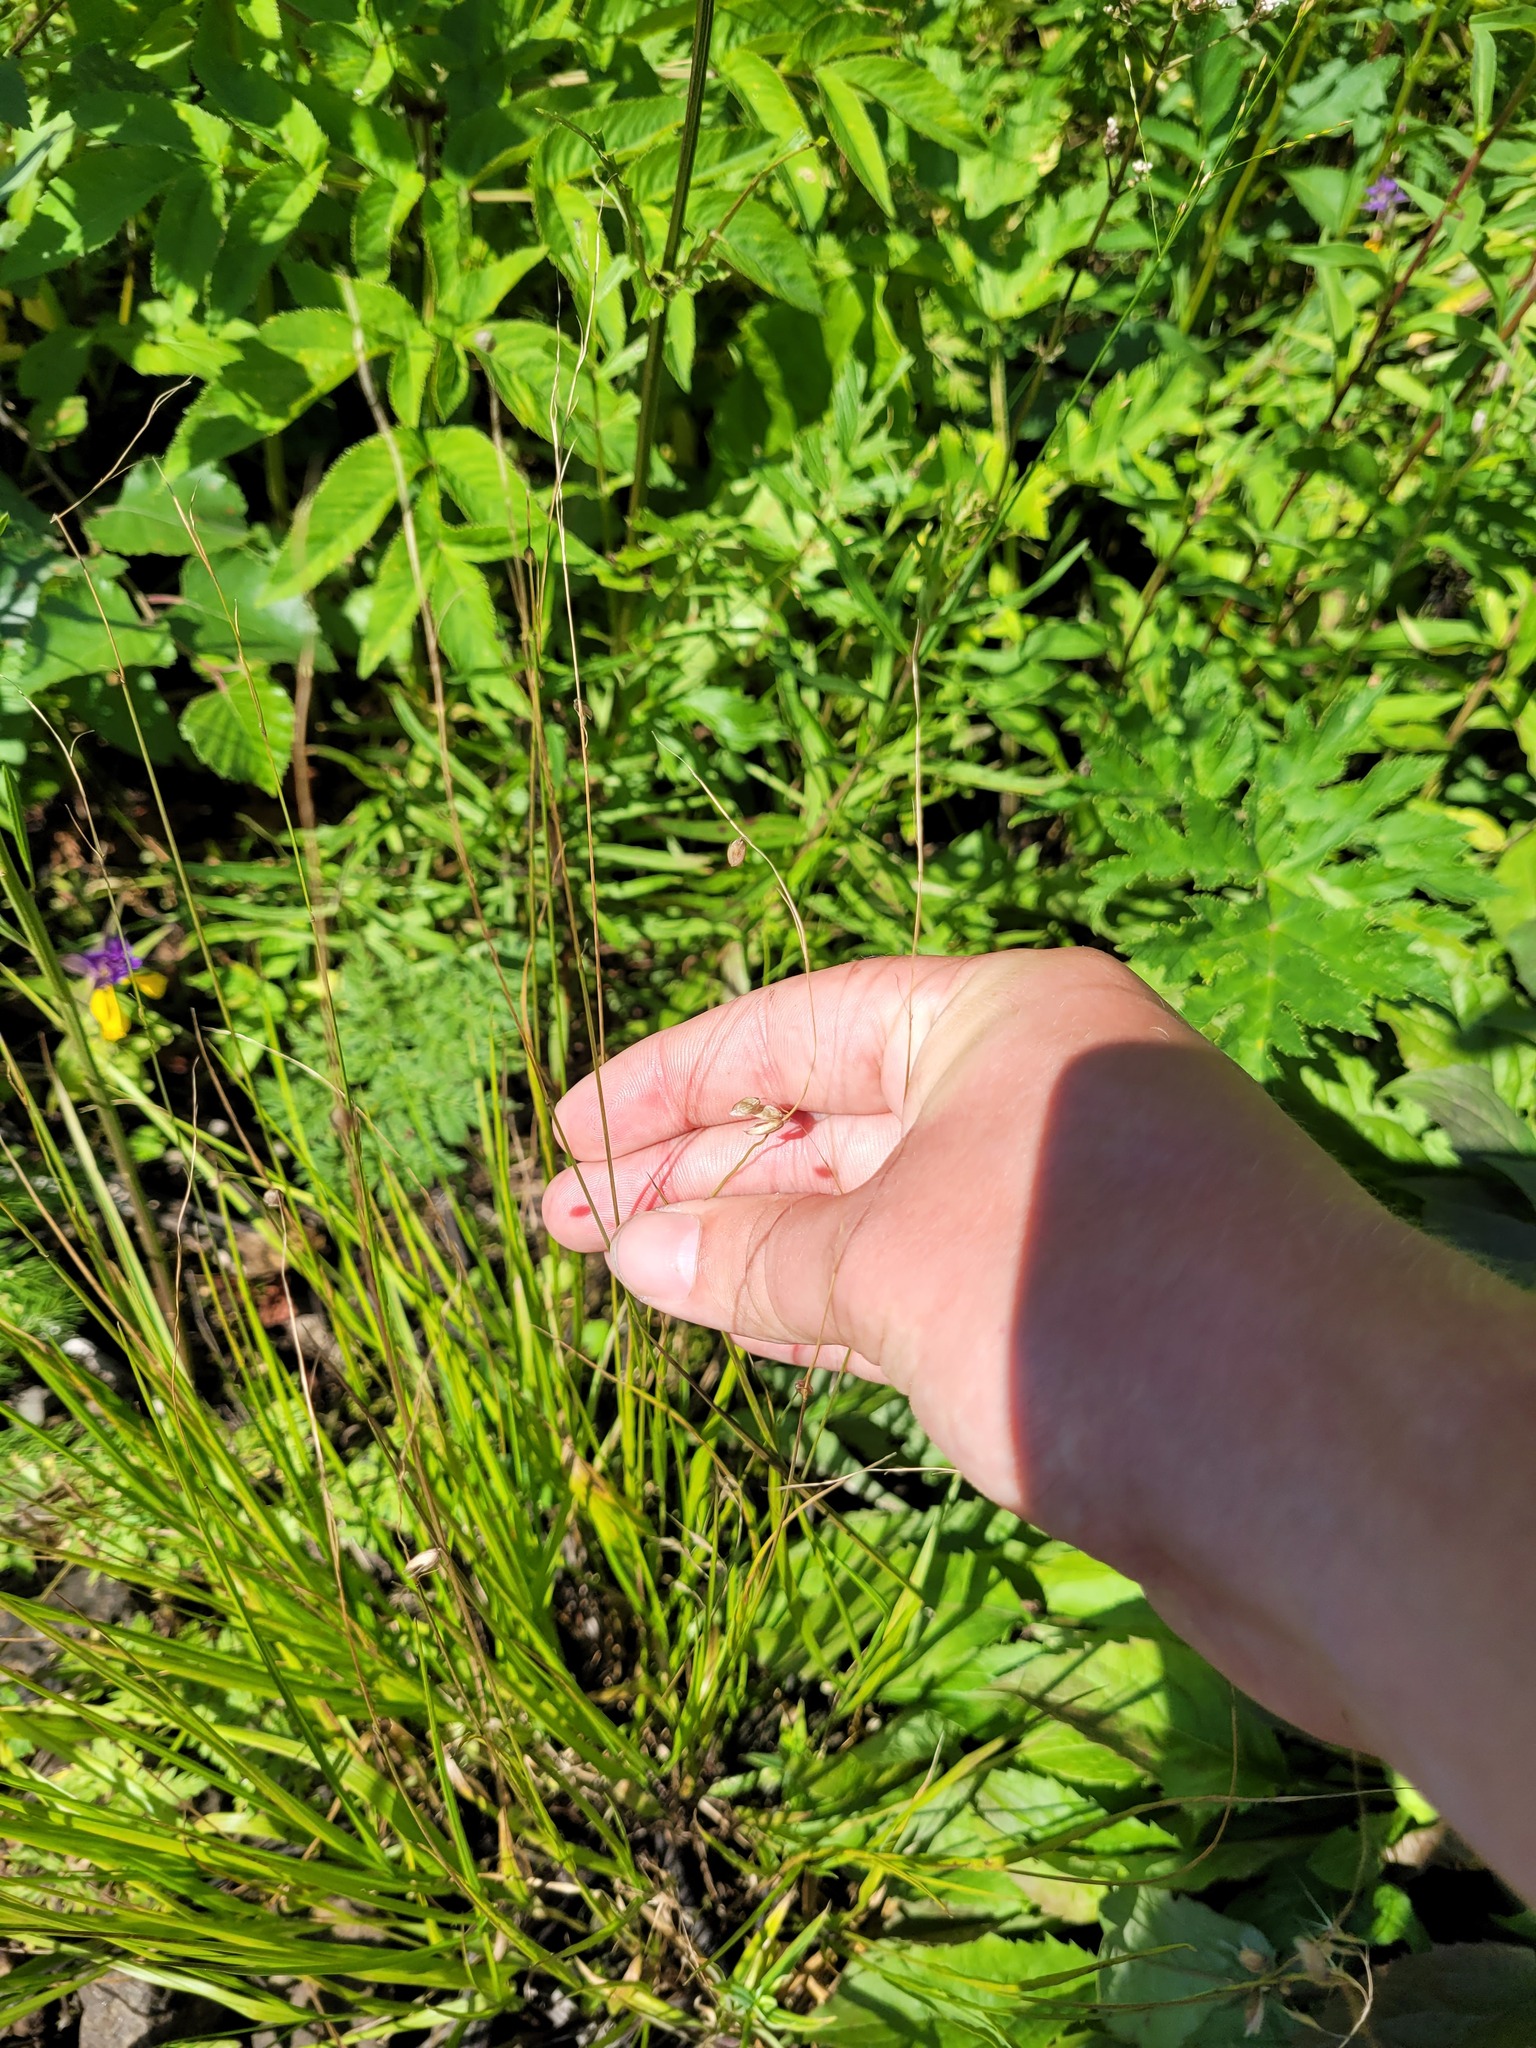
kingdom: Plantae
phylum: Tracheophyta
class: Liliopsida
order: Poales
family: Poaceae
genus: Melica
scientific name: Melica nutans
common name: Mountain melick
